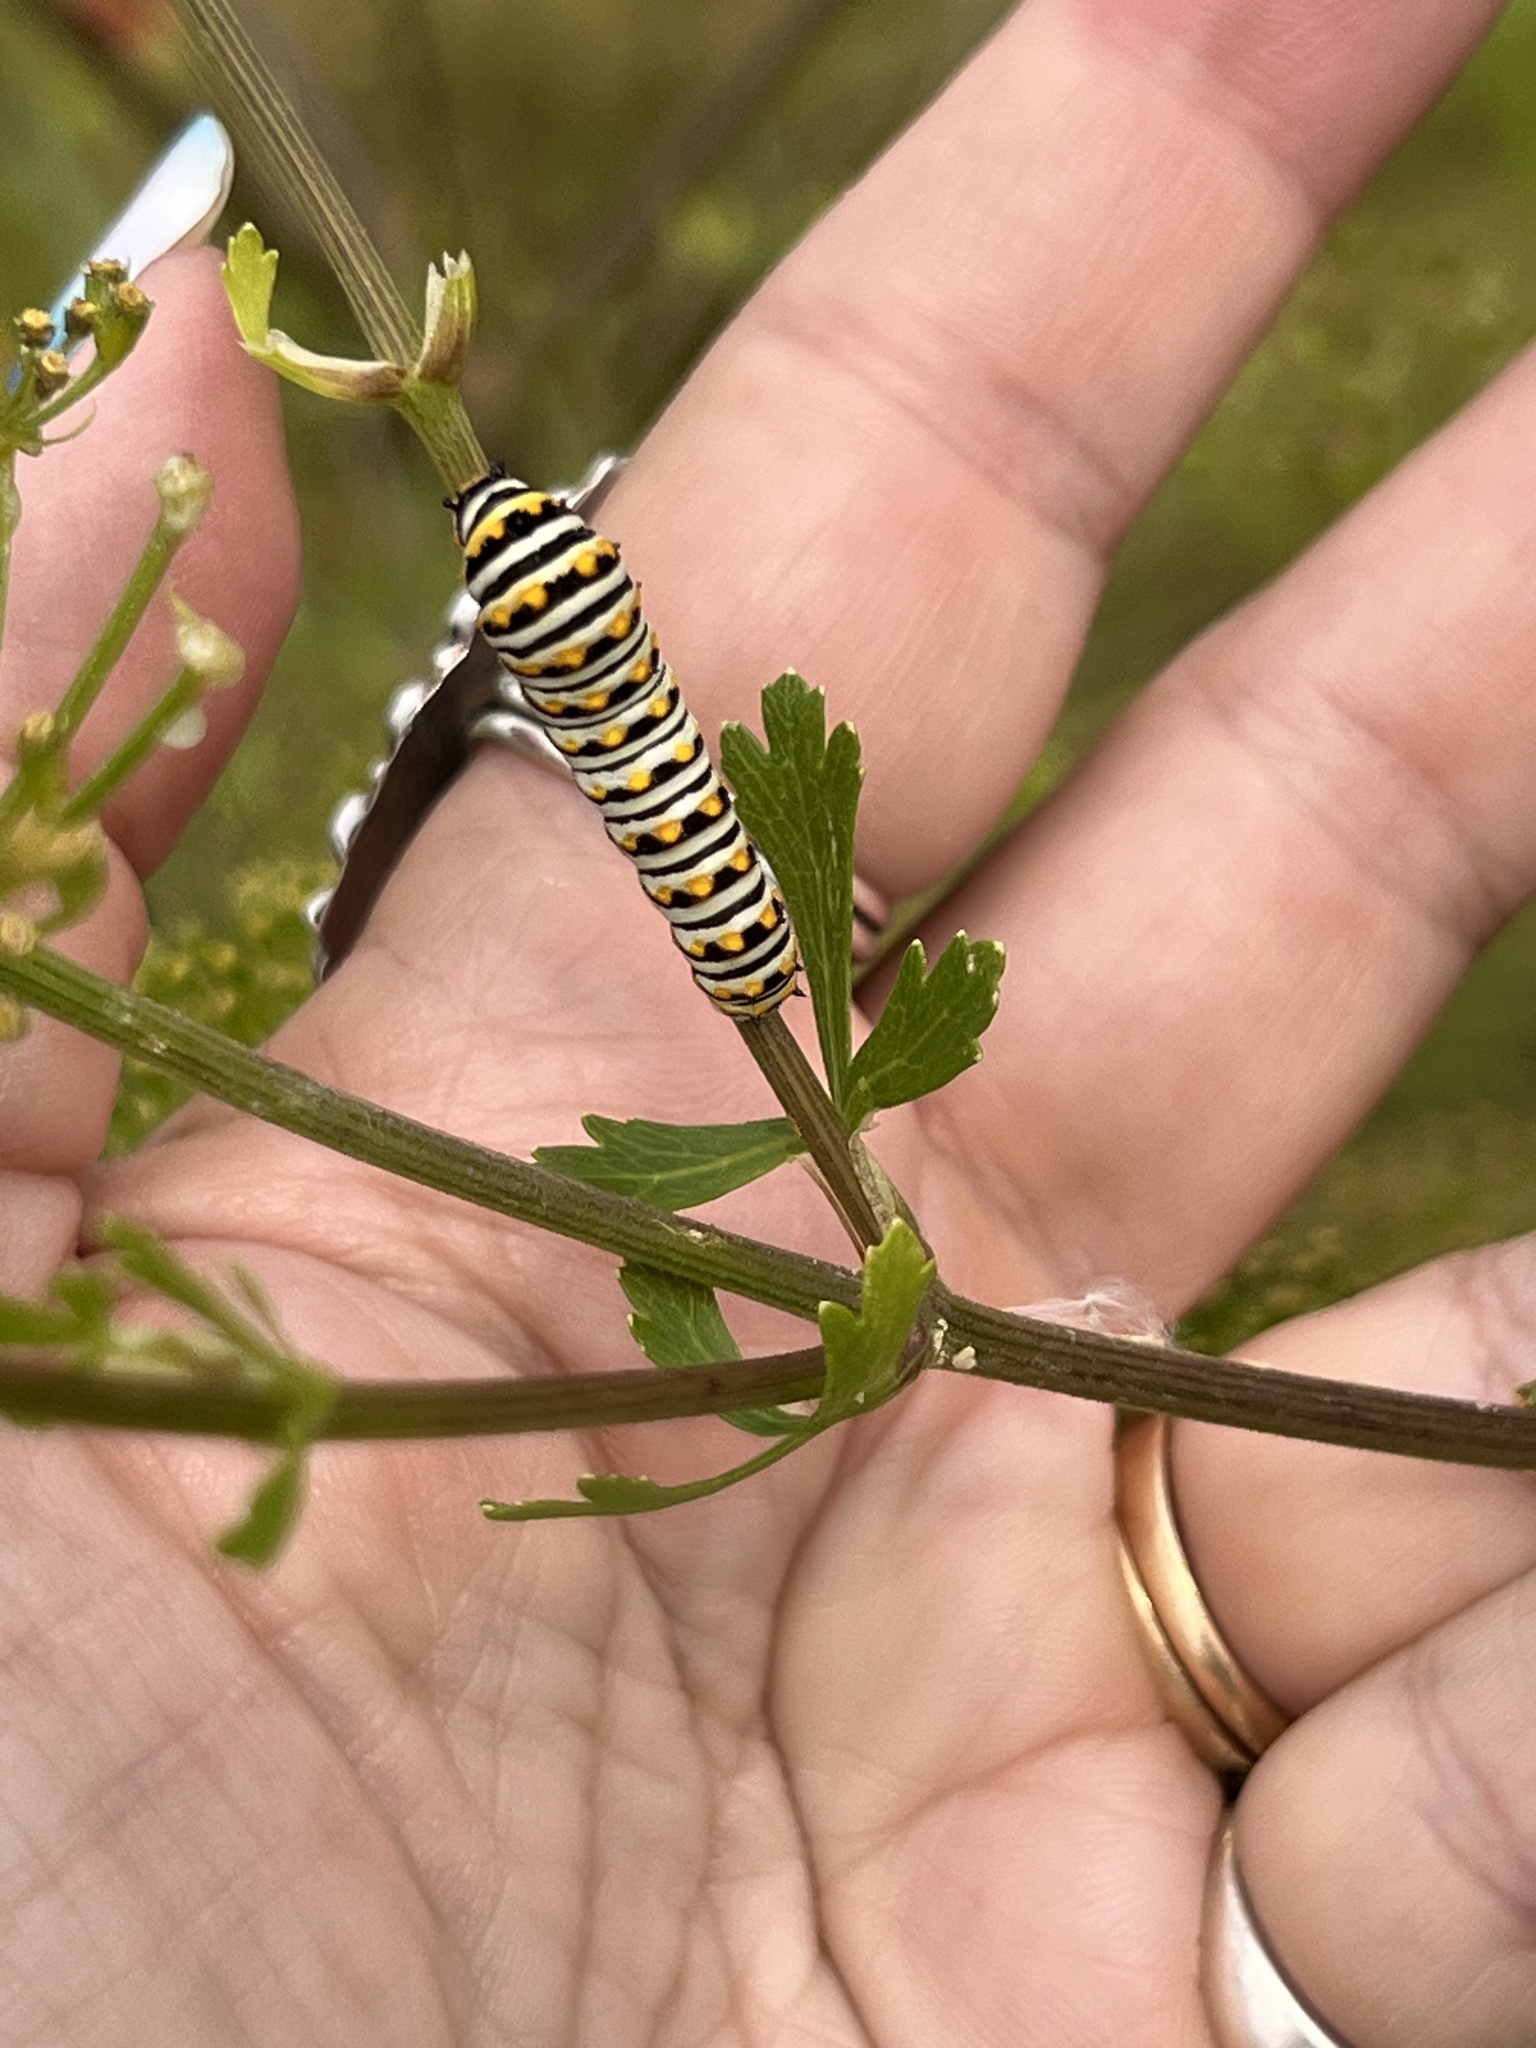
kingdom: Animalia
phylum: Arthropoda
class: Insecta
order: Lepidoptera
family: Papilionidae
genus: Papilio
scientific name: Papilio polyxenes
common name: Black swallowtail
